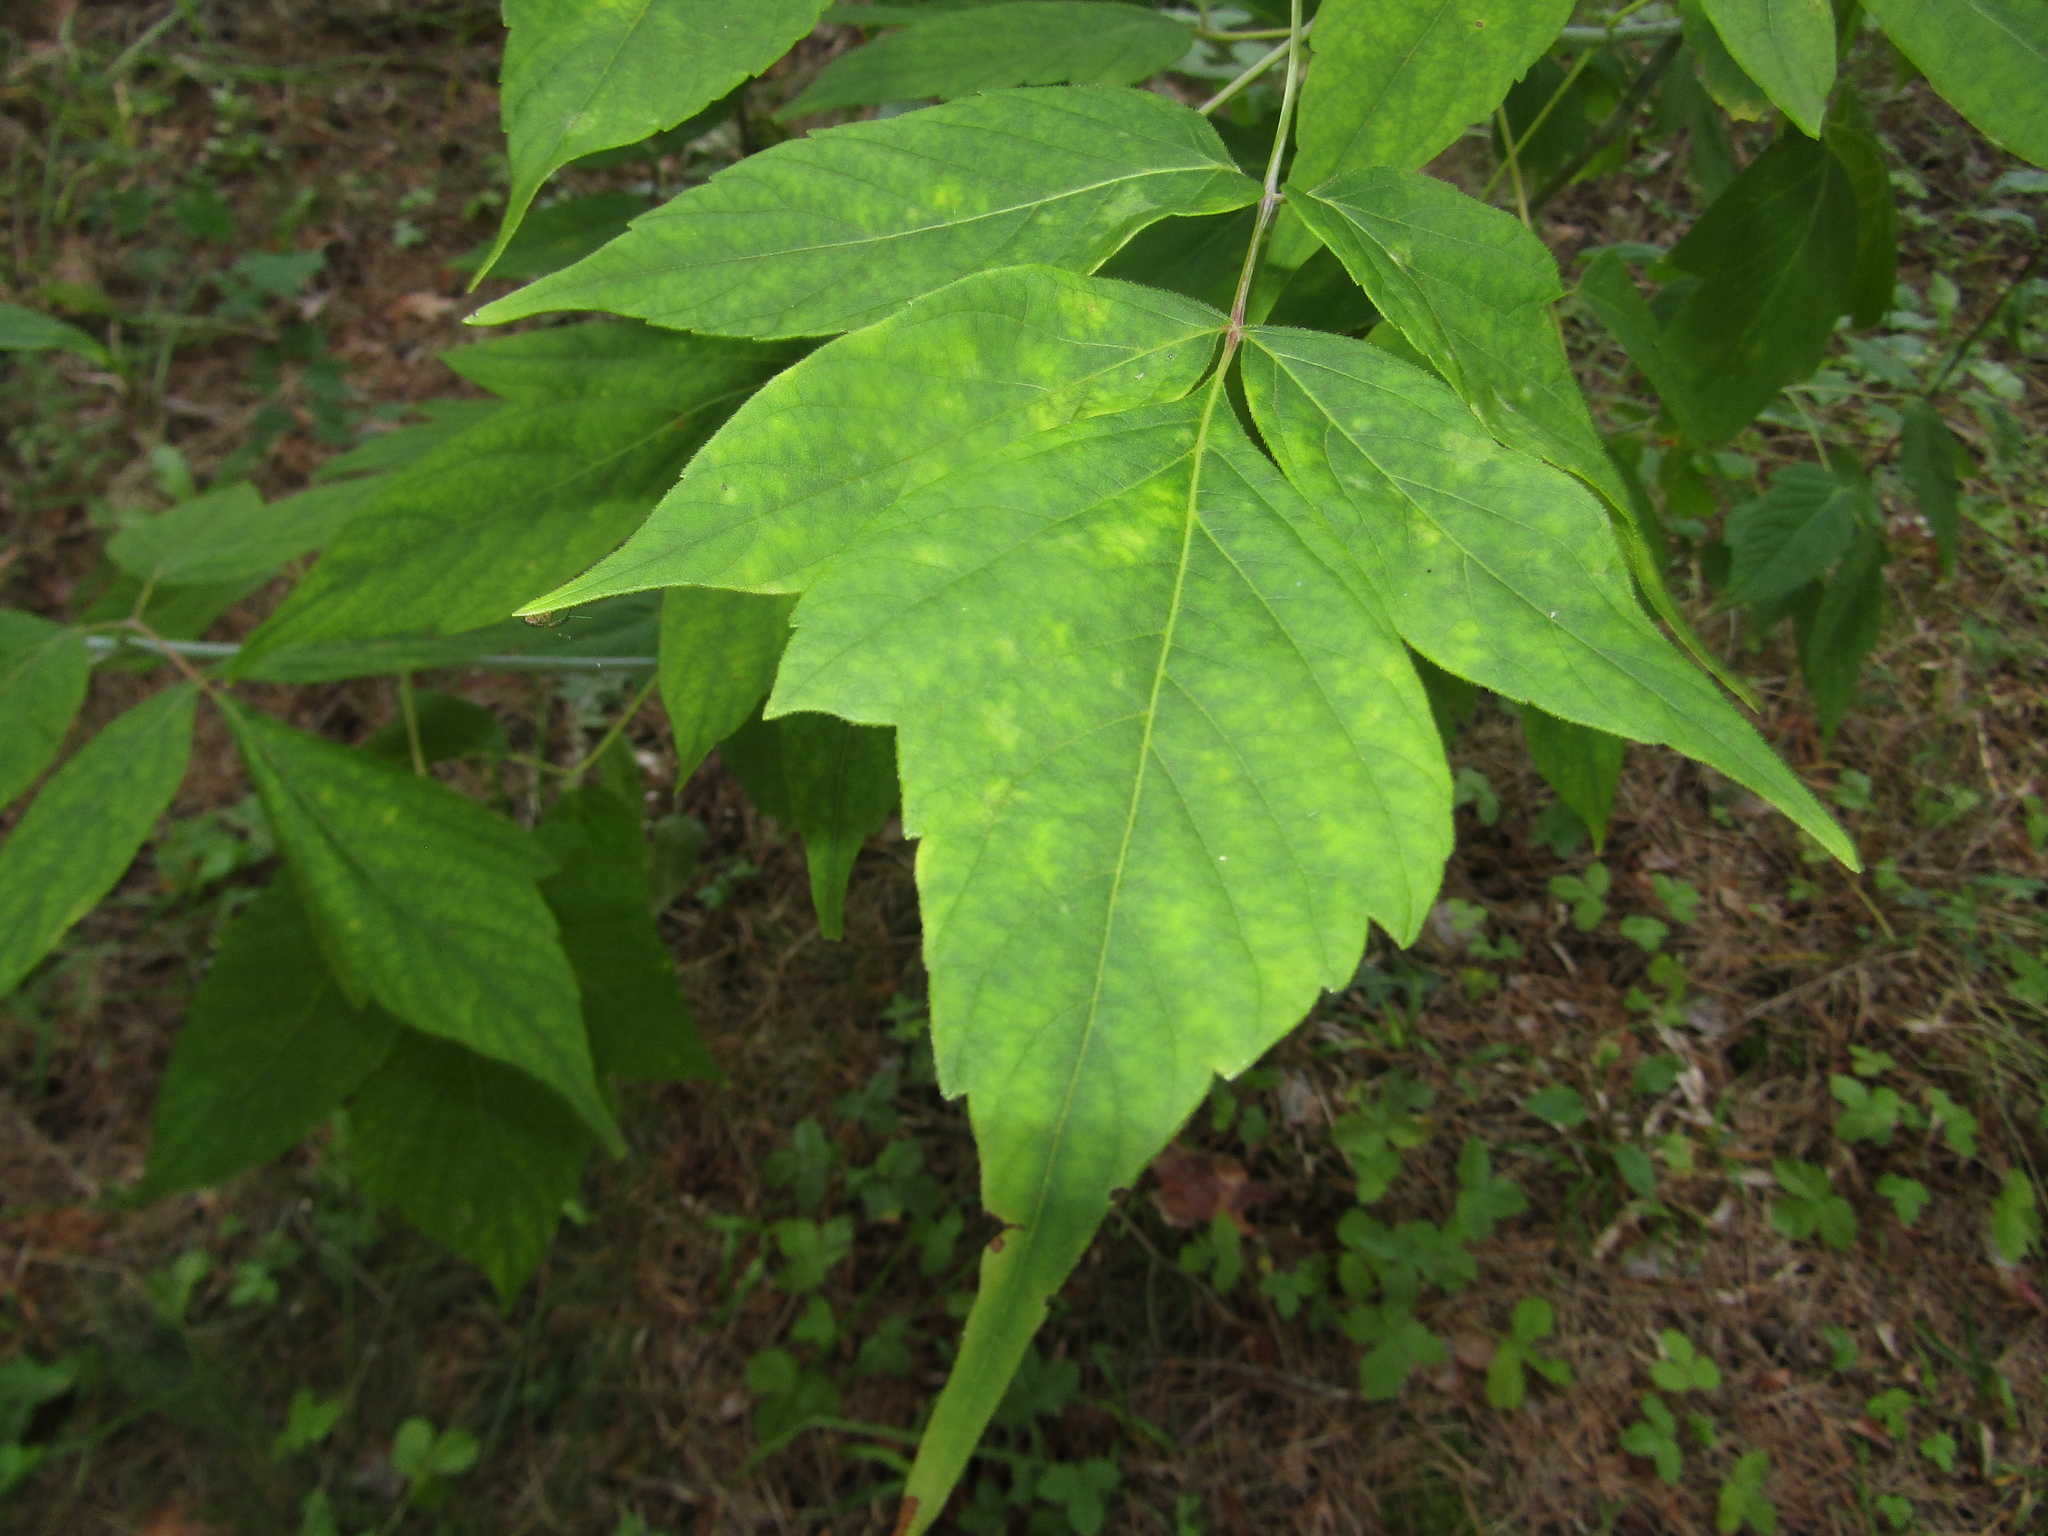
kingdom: Plantae
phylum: Tracheophyta
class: Magnoliopsida
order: Sapindales
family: Sapindaceae
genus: Acer
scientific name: Acer negundo
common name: Ashleaf maple
